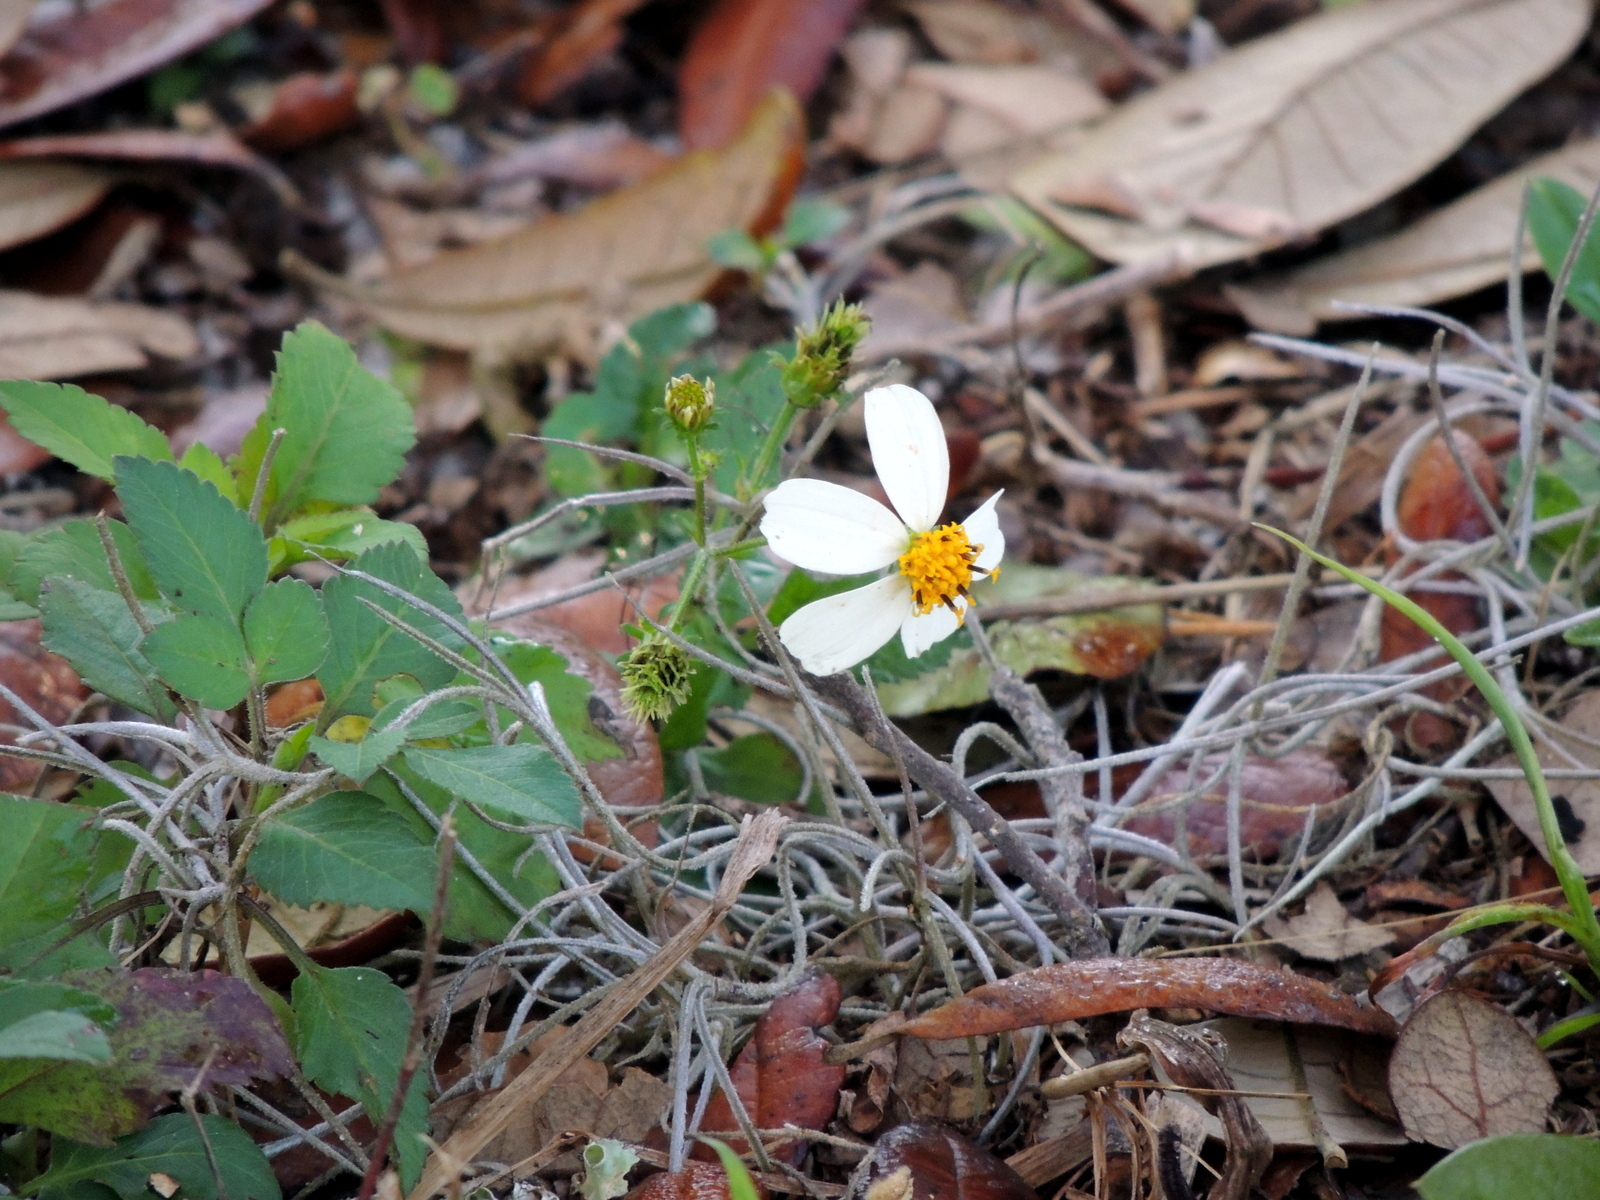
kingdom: Plantae
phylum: Tracheophyta
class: Magnoliopsida
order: Asterales
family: Asteraceae
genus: Bidens
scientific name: Bidens alba
